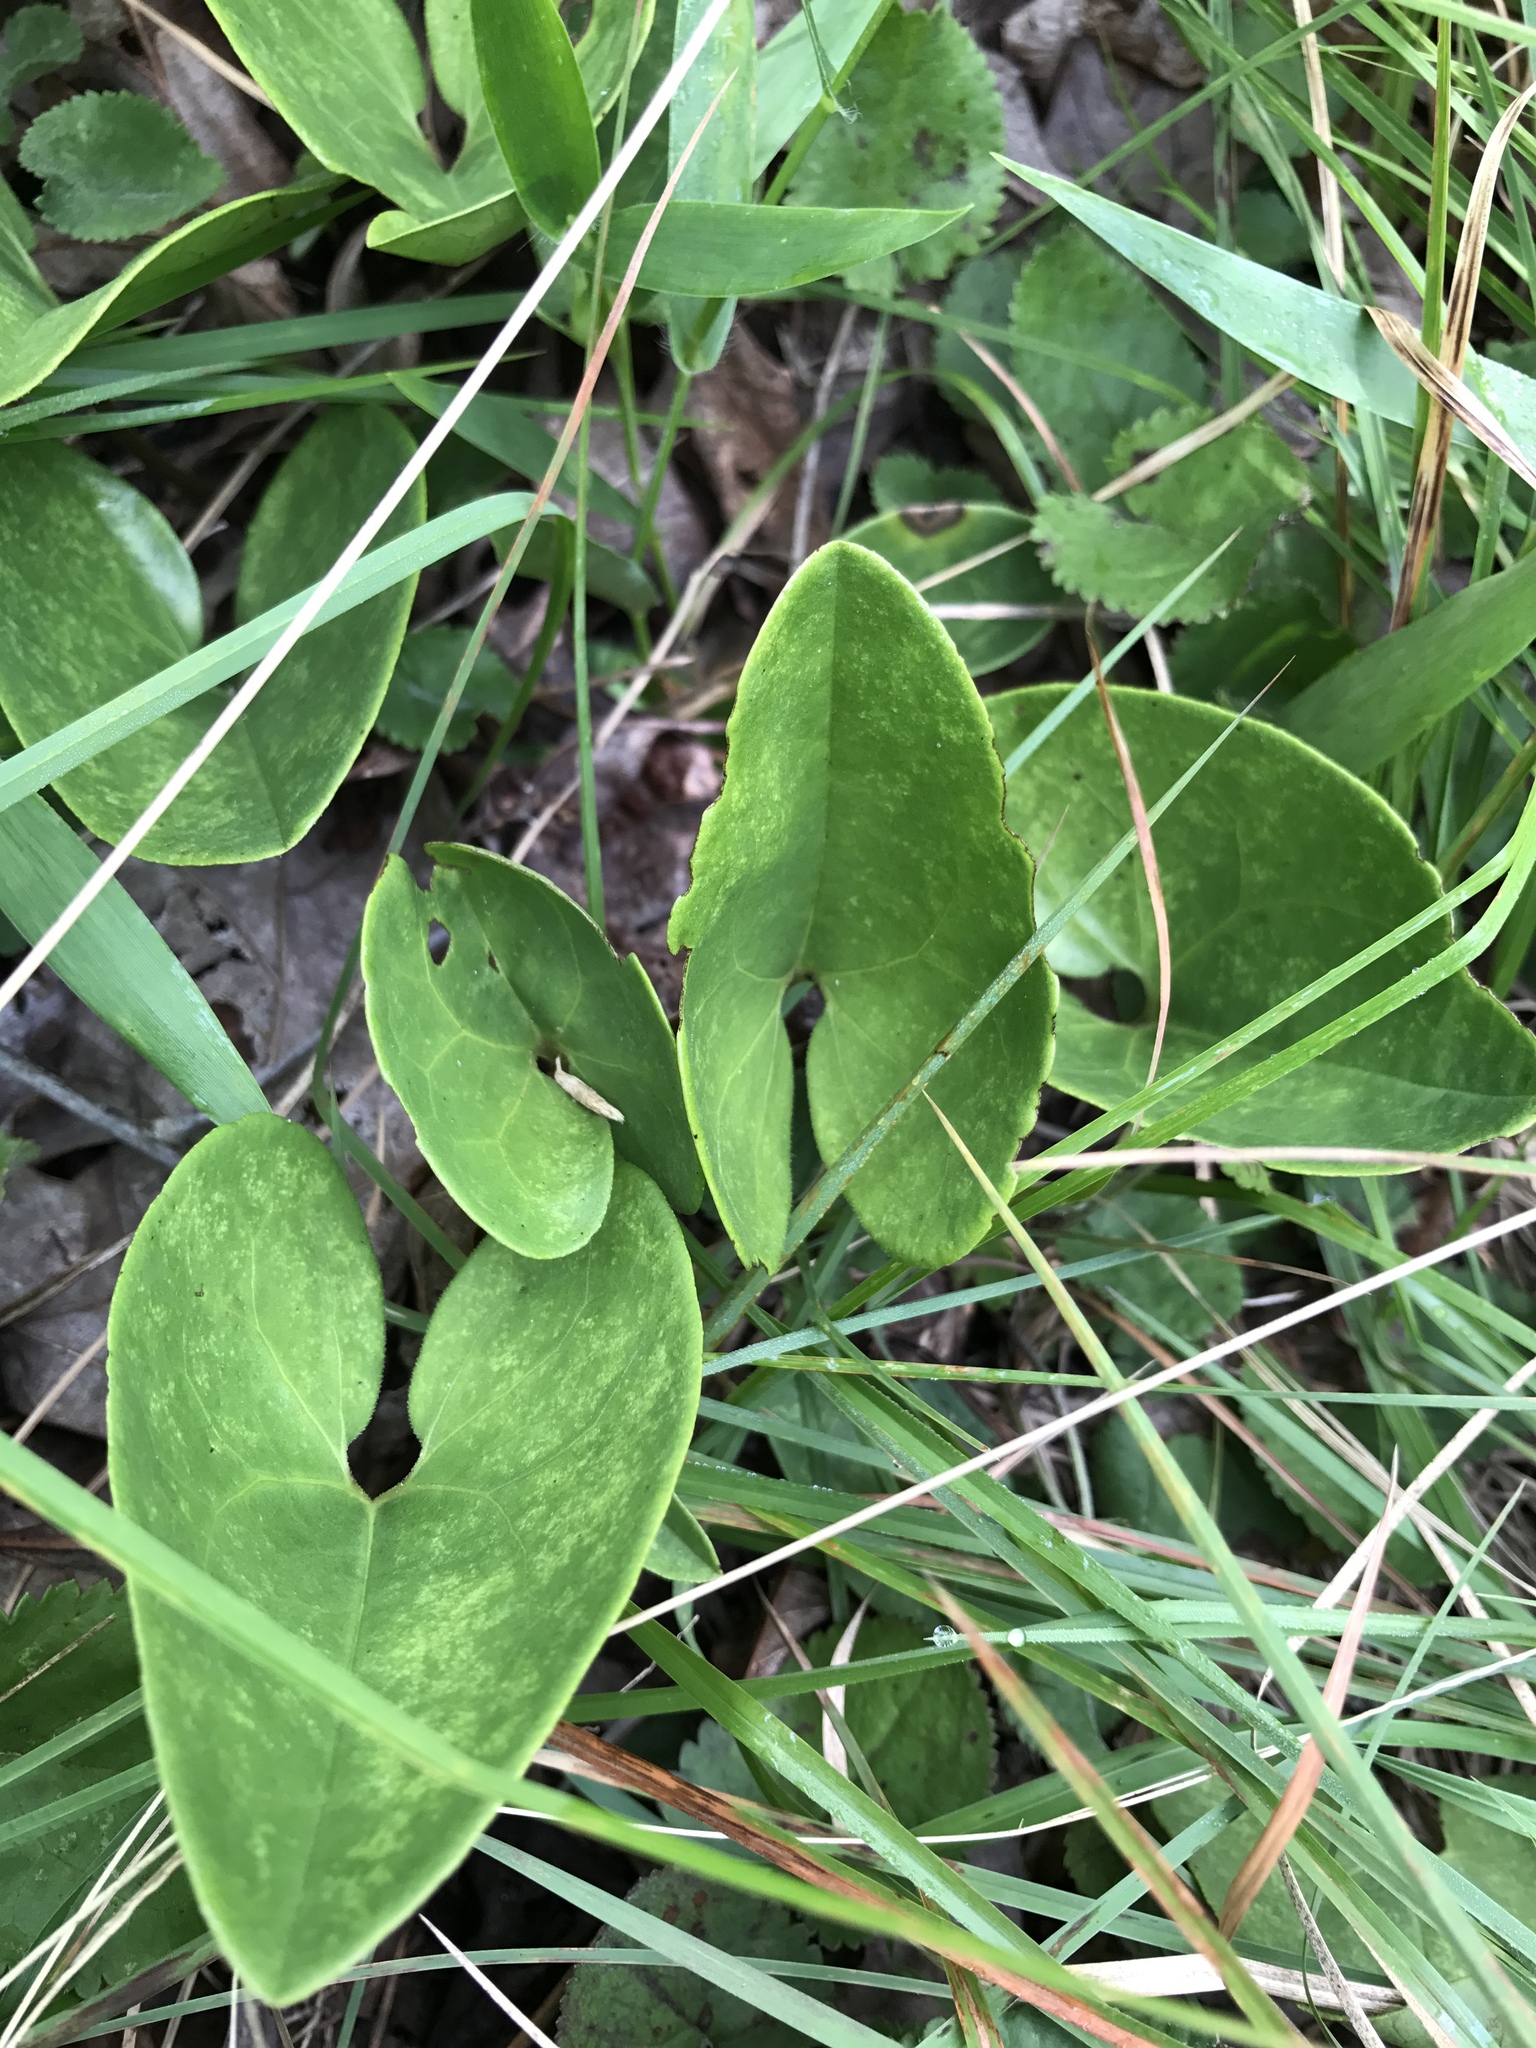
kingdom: Plantae
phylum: Tracheophyta
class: Magnoliopsida
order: Piperales
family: Aristolochiaceae
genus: Hexastylis
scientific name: Hexastylis arifolia
